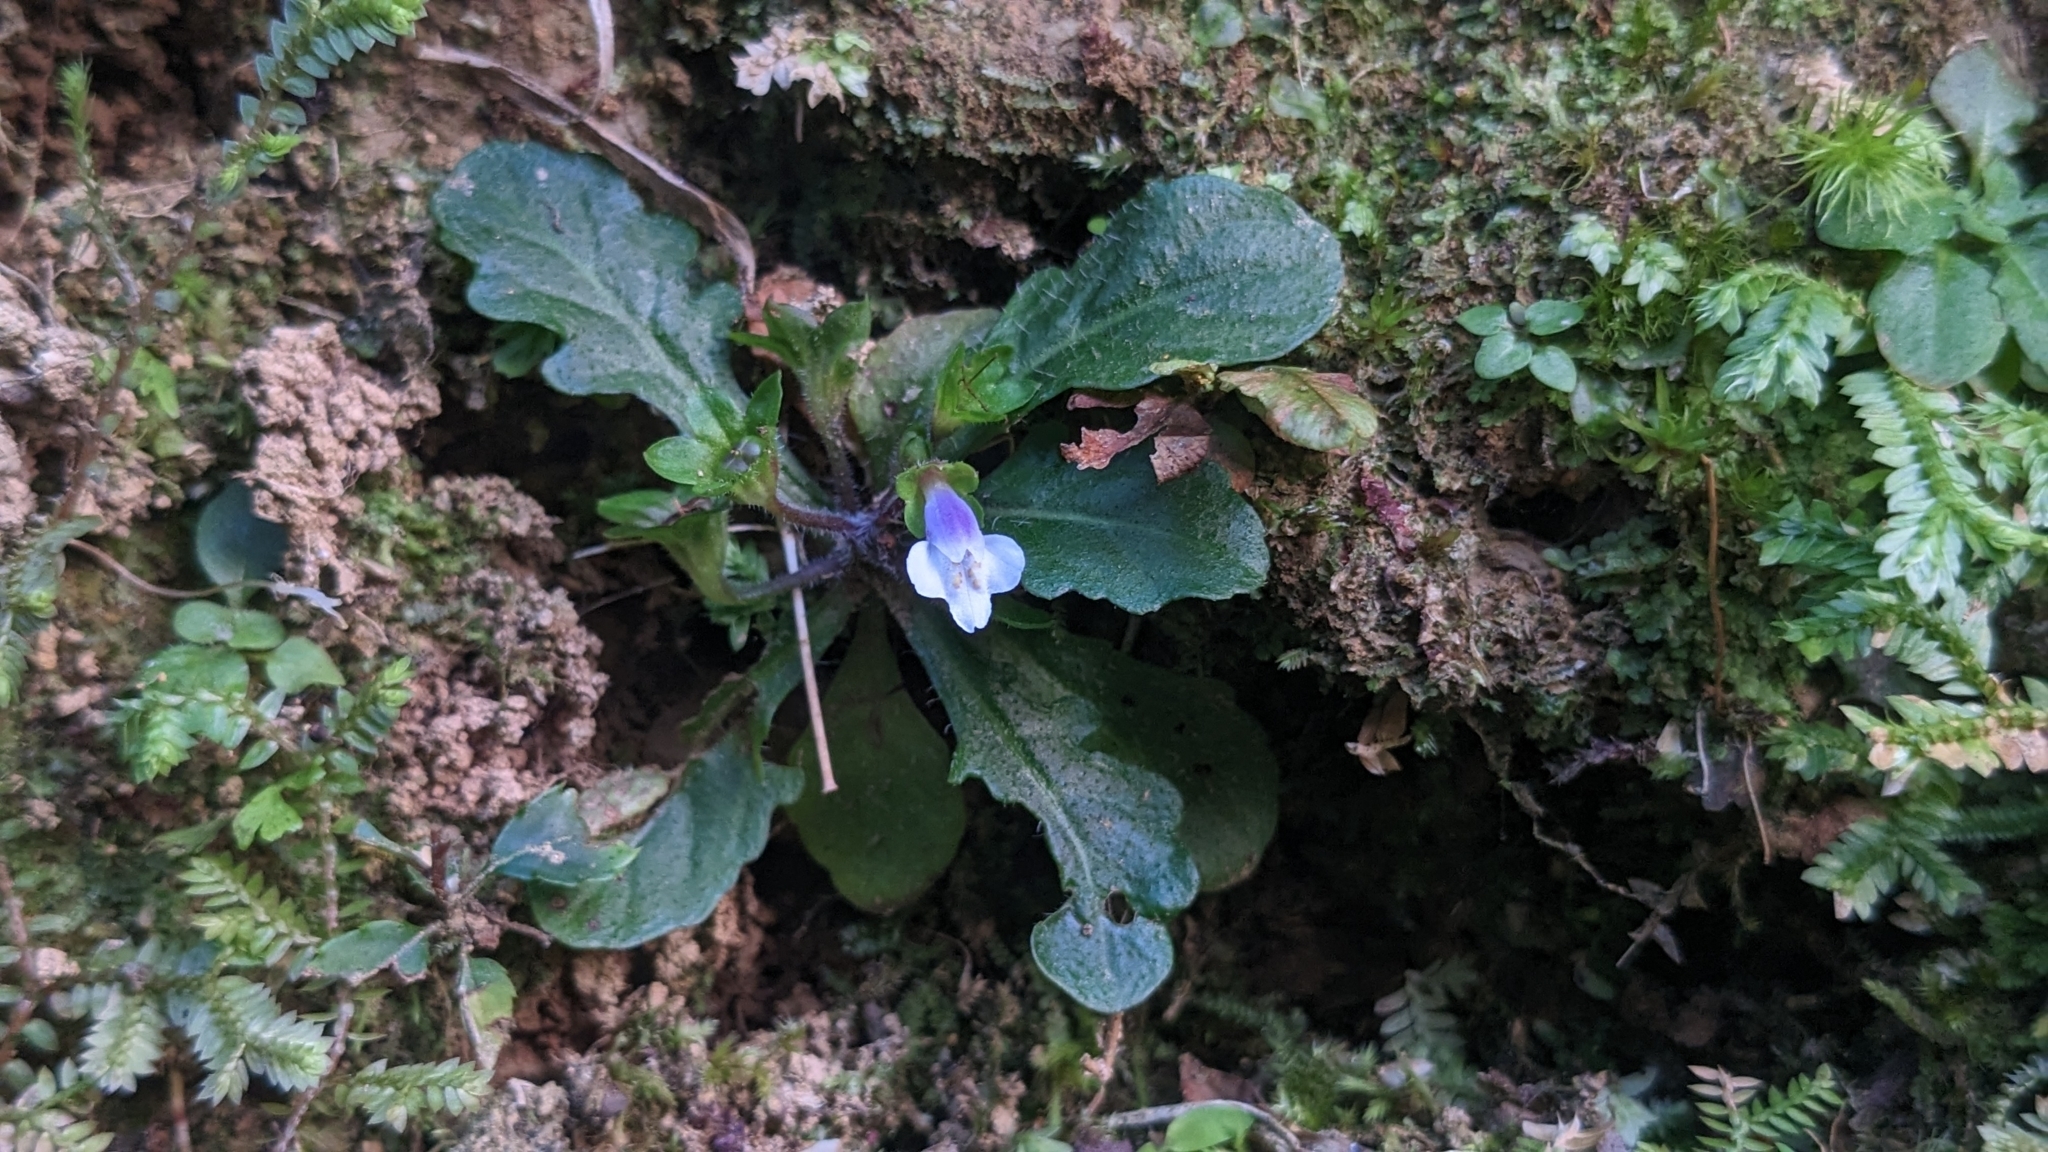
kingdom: Plantae
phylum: Tracheophyta
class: Magnoliopsida
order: Lamiales
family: Mazaceae
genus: Mazus
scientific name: Mazus goodeniifolius
